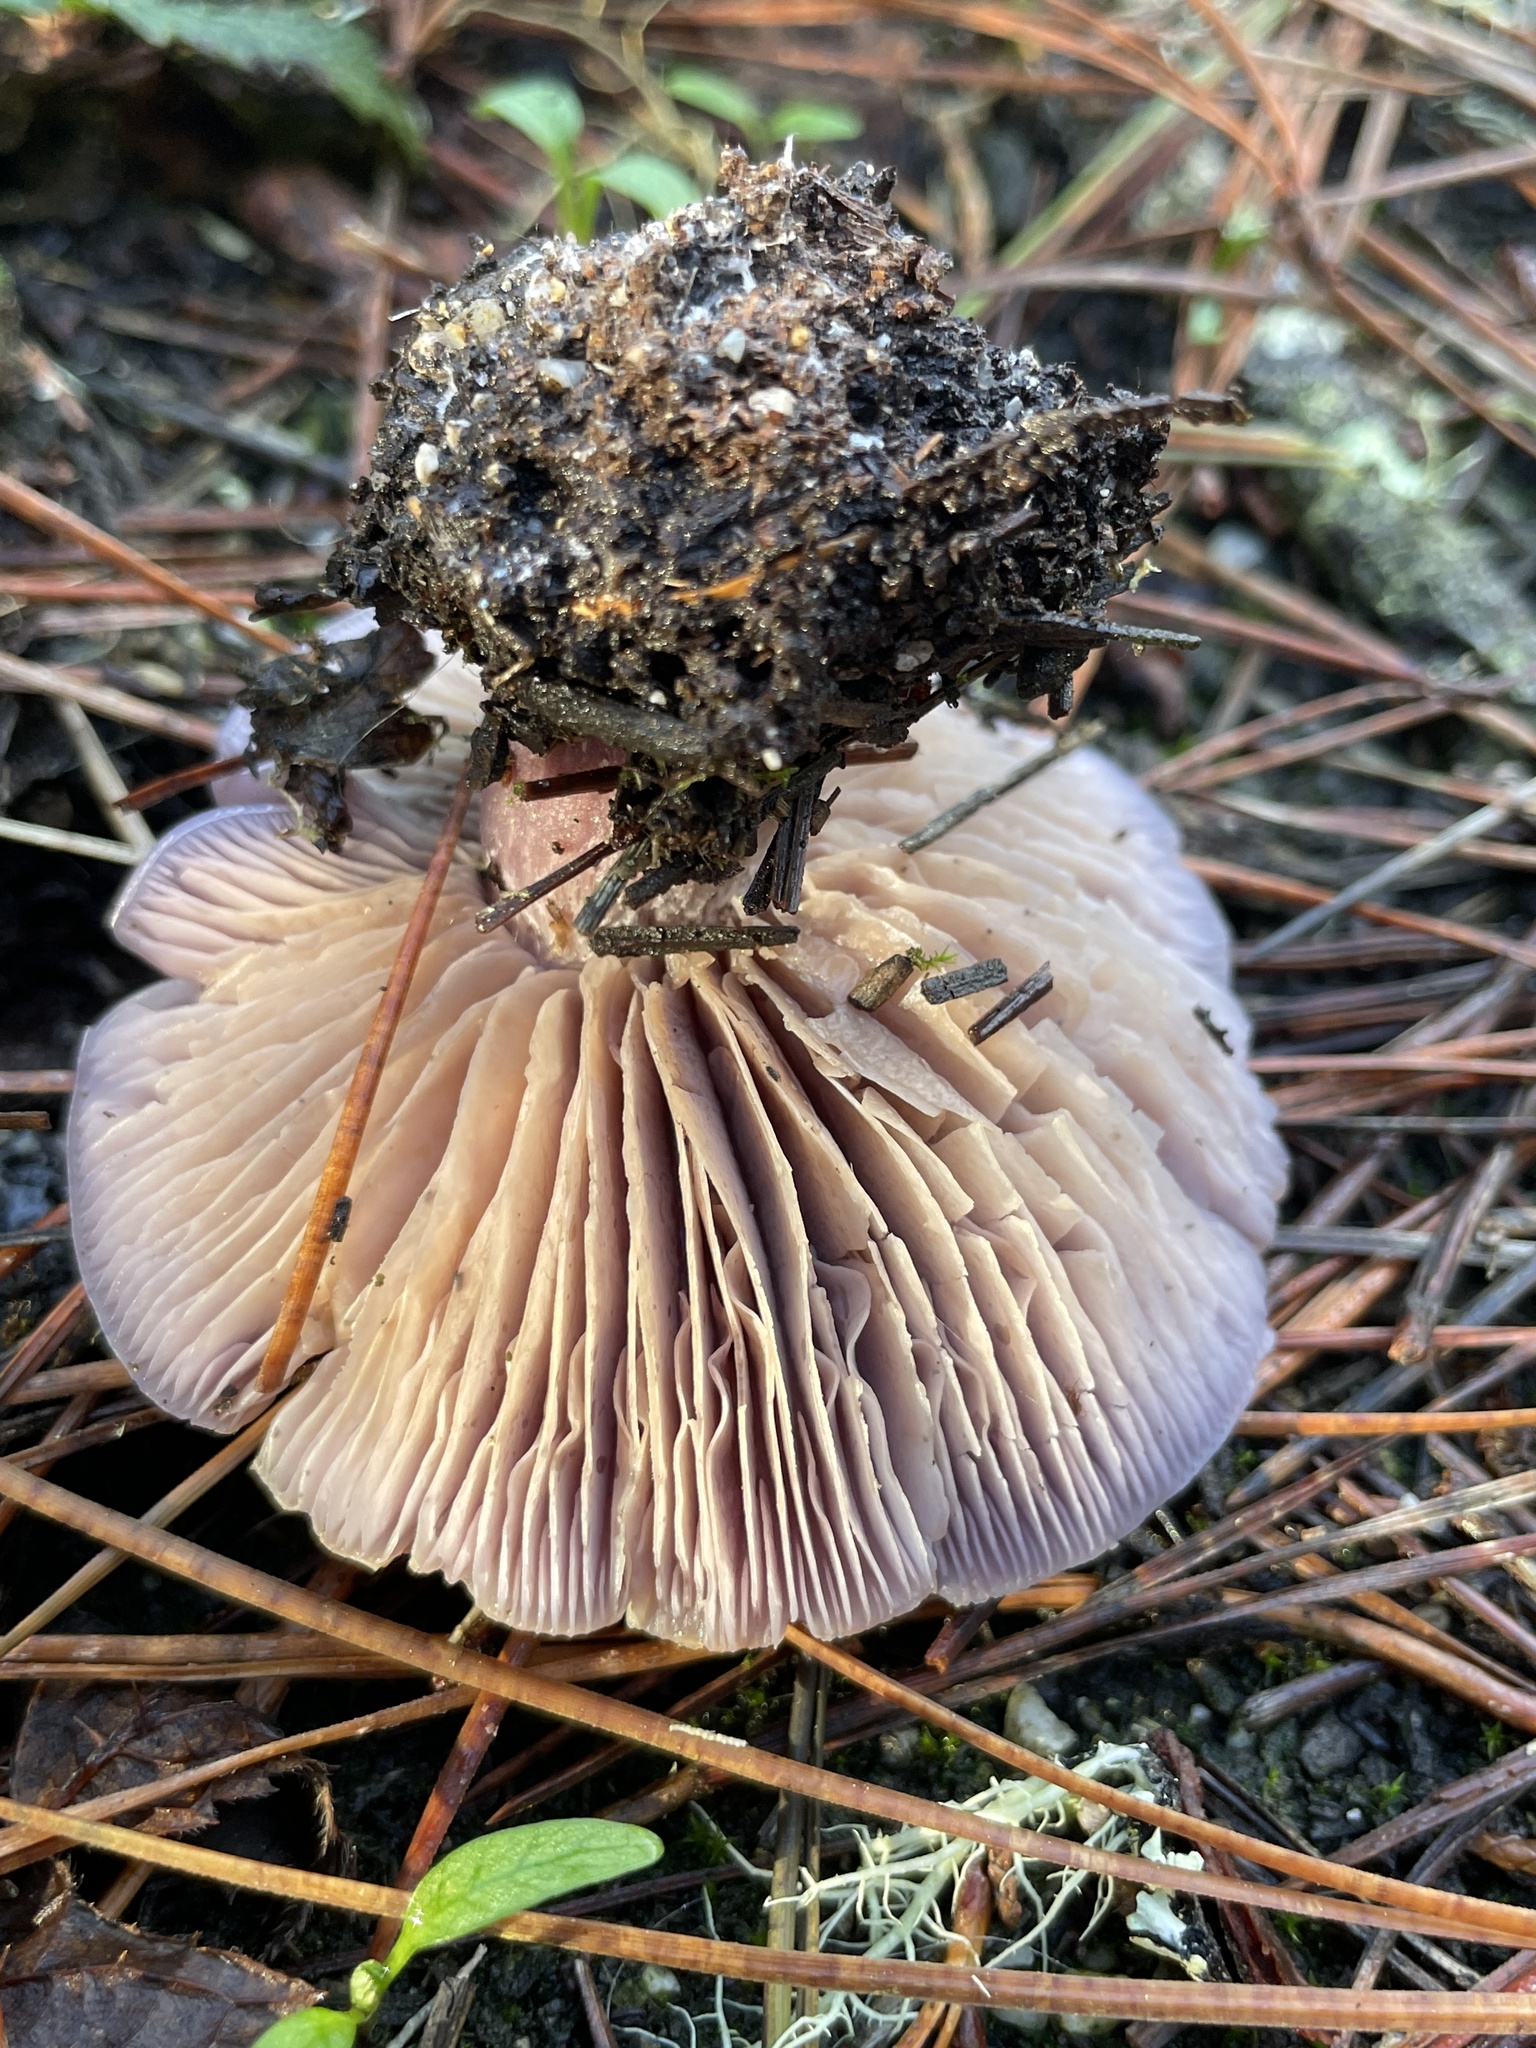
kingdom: Fungi
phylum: Basidiomycota
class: Agaricomycetes
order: Agaricales
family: Tricholomataceae
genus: Collybia
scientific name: Collybia
